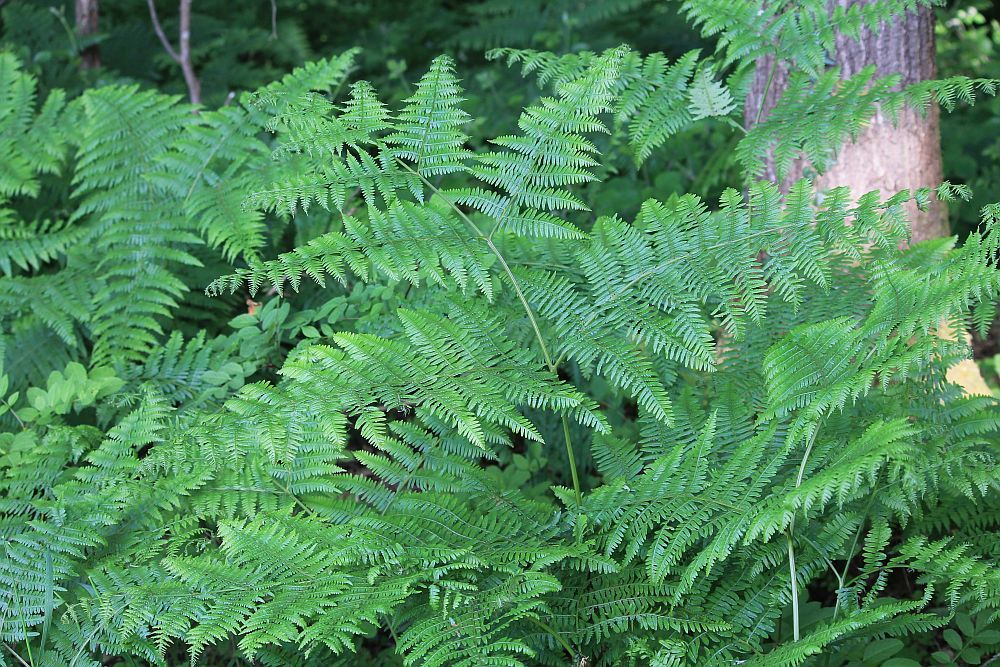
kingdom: Plantae
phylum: Tracheophyta
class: Polypodiopsida
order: Polypodiales
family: Dennstaedtiaceae
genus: Pteridium
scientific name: Pteridium aquilinum
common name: Bracken
